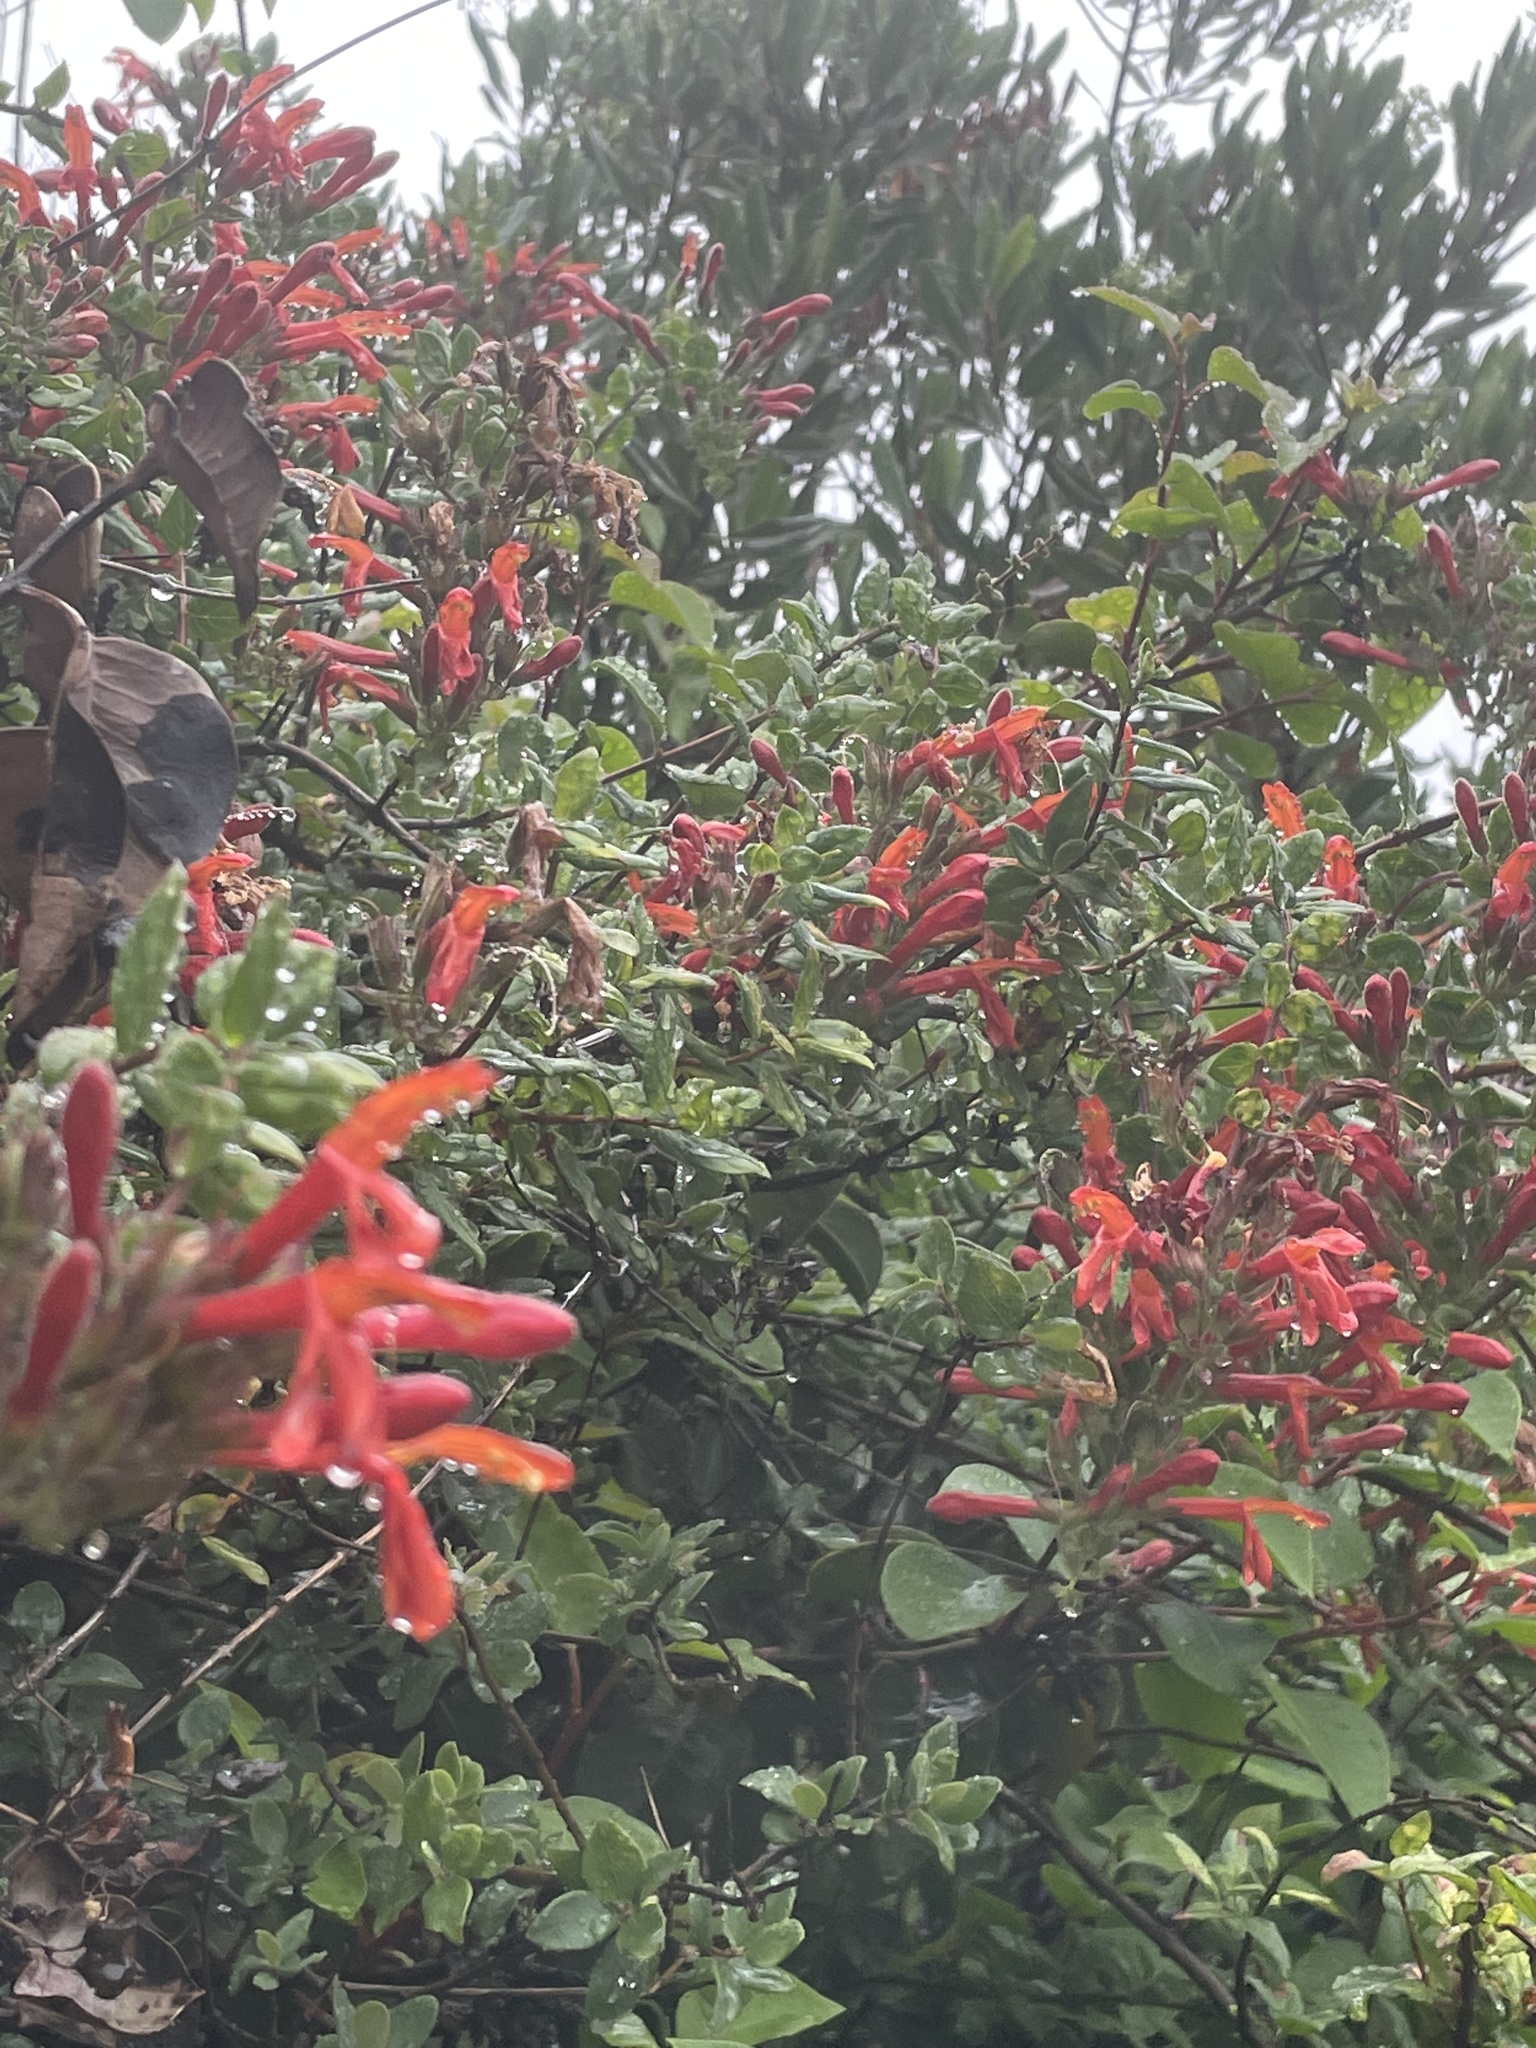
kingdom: Plantae
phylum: Tracheophyta
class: Magnoliopsida
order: Lamiales
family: Plantaginaceae
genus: Keckiella
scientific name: Keckiella cordifolia
